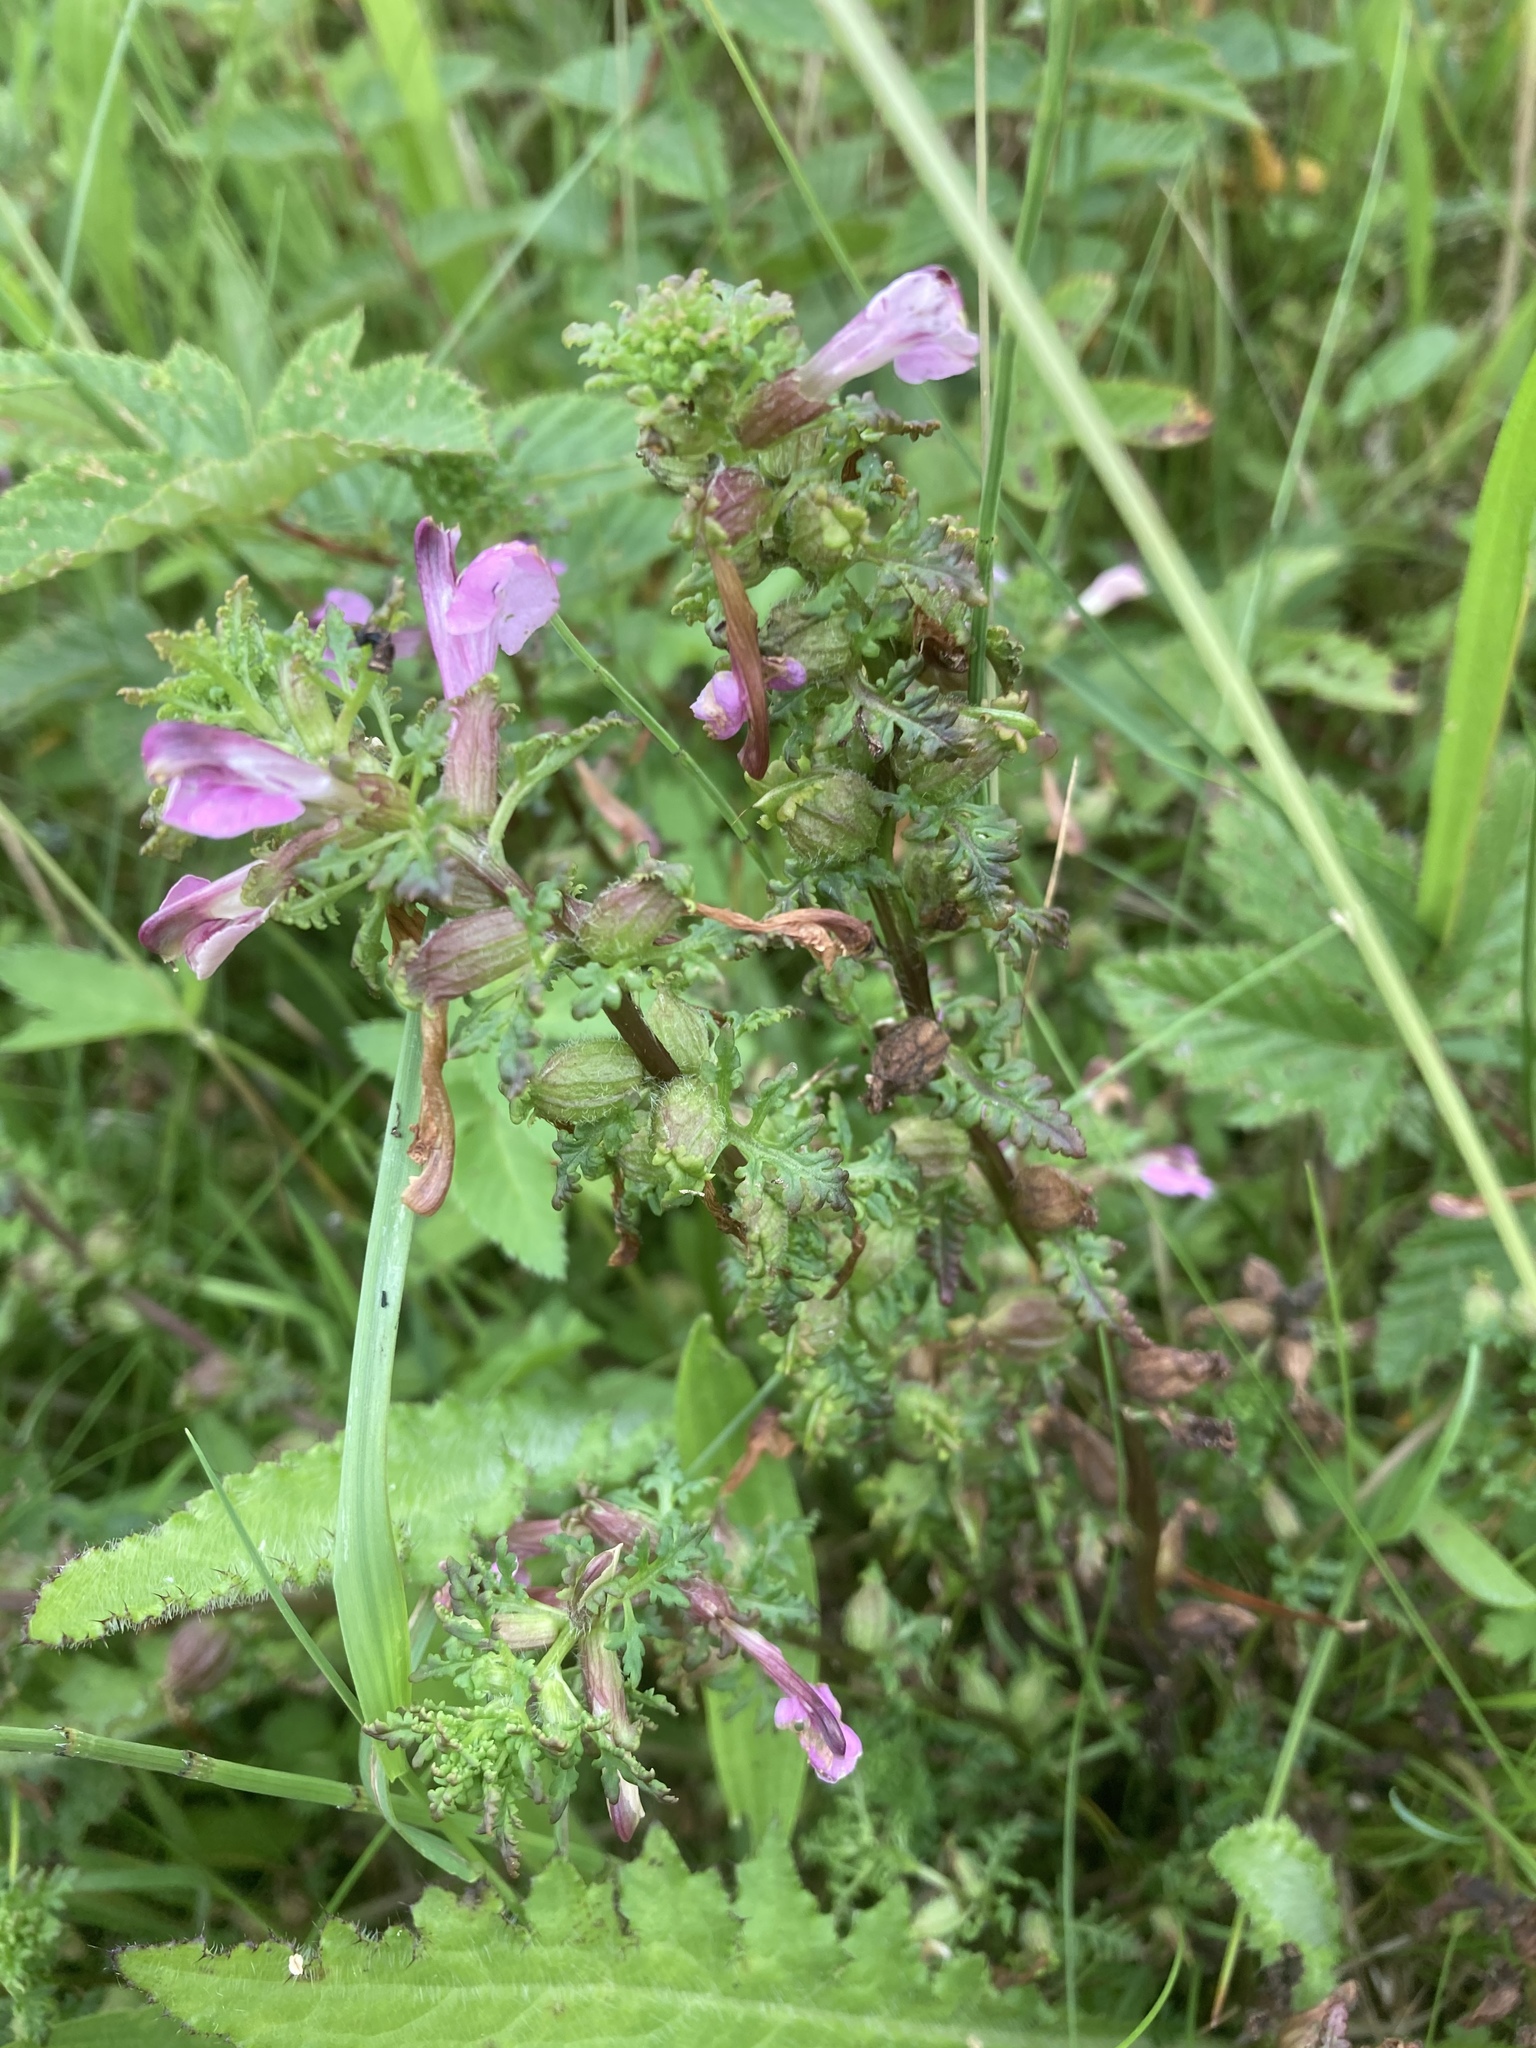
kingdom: Plantae
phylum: Tracheophyta
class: Magnoliopsida
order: Lamiales
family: Orobanchaceae
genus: Pedicularis
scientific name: Pedicularis palustris
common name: Marsh lousewort
